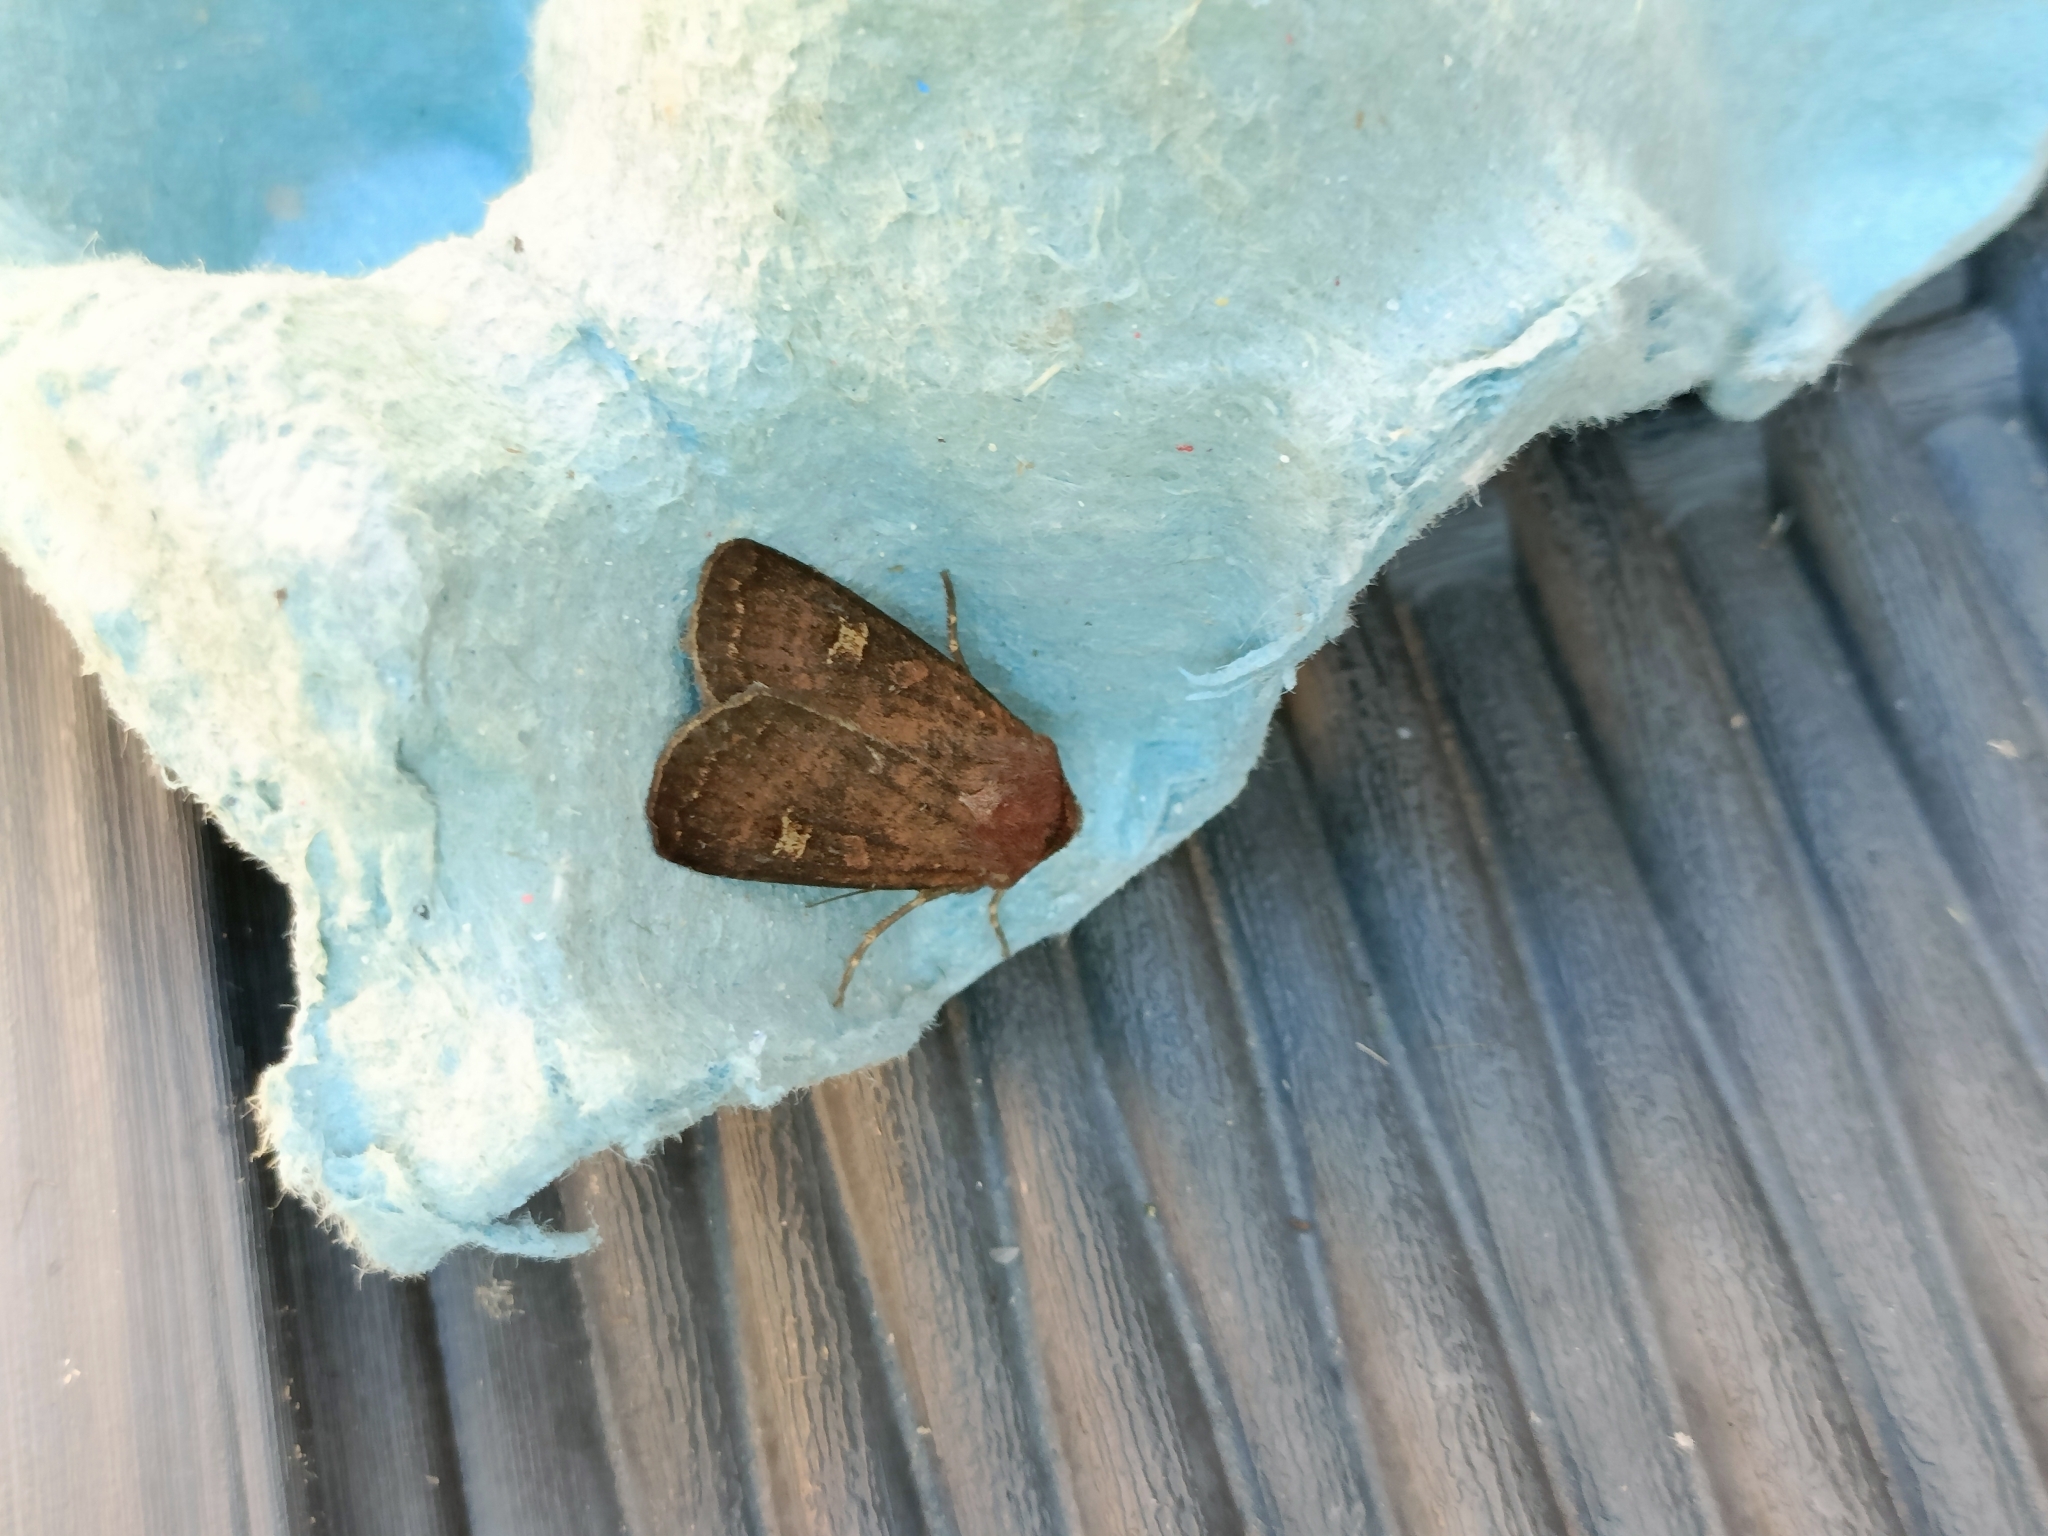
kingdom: Animalia
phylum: Arthropoda
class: Insecta
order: Lepidoptera
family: Noctuidae
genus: Xestia
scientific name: Xestia xanthographa
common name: Square-spot rustic
